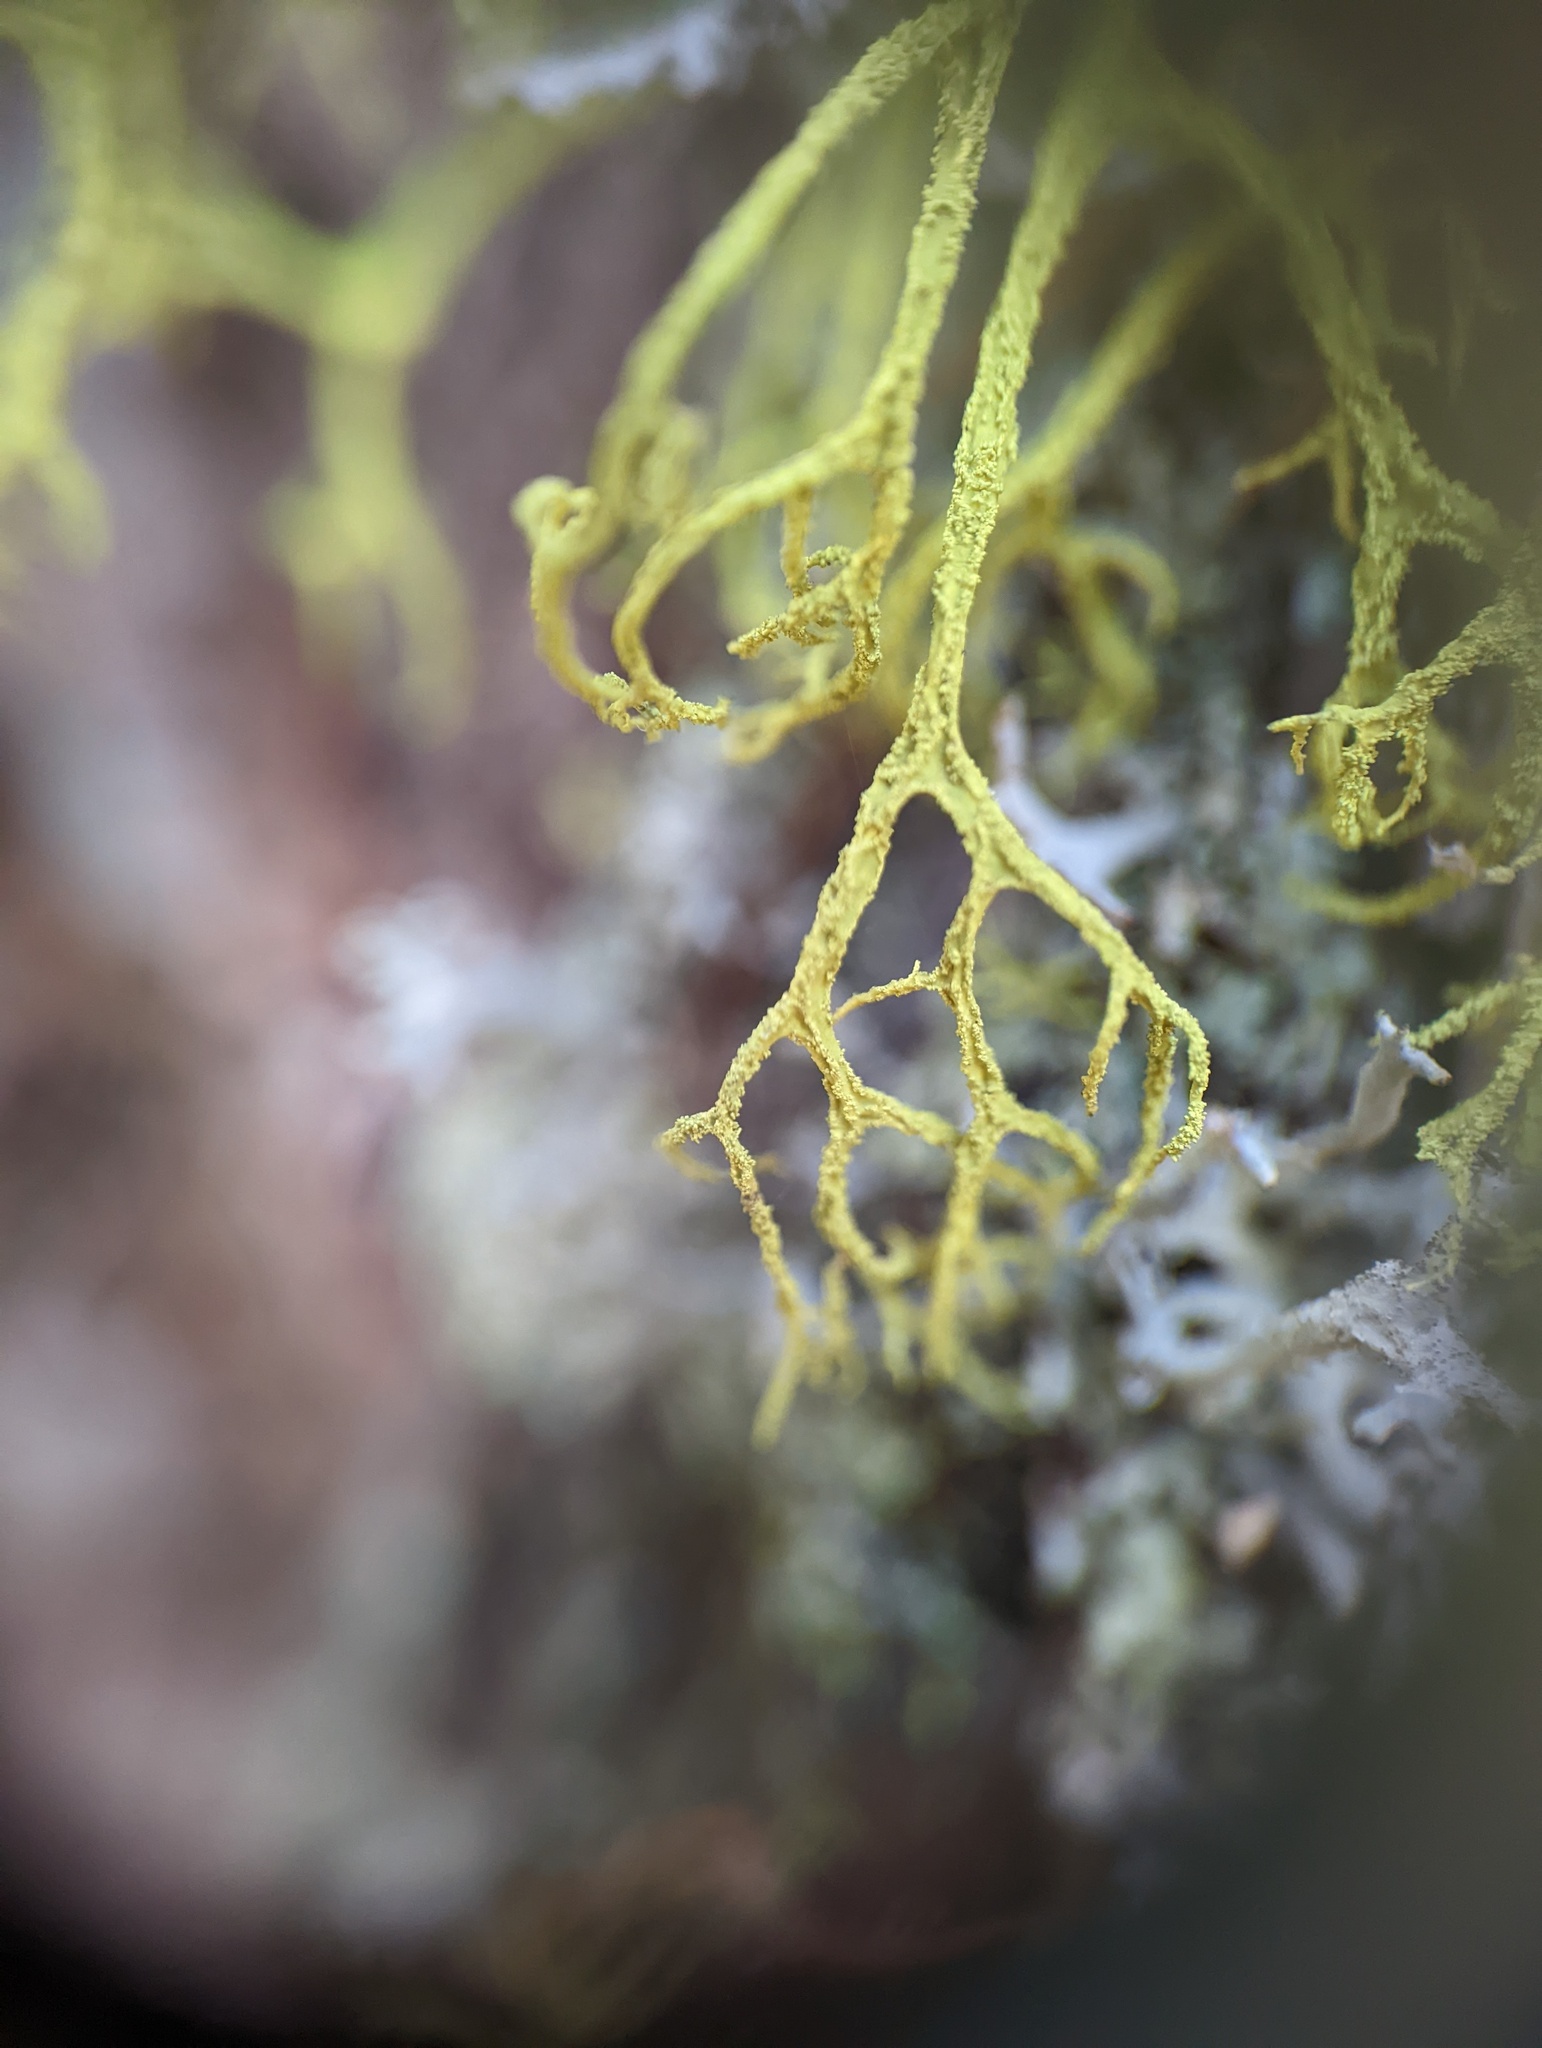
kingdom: Fungi
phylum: Ascomycota
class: Lecanoromycetes
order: Lecanorales
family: Parmeliaceae
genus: Letharia
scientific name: Letharia vulpina
